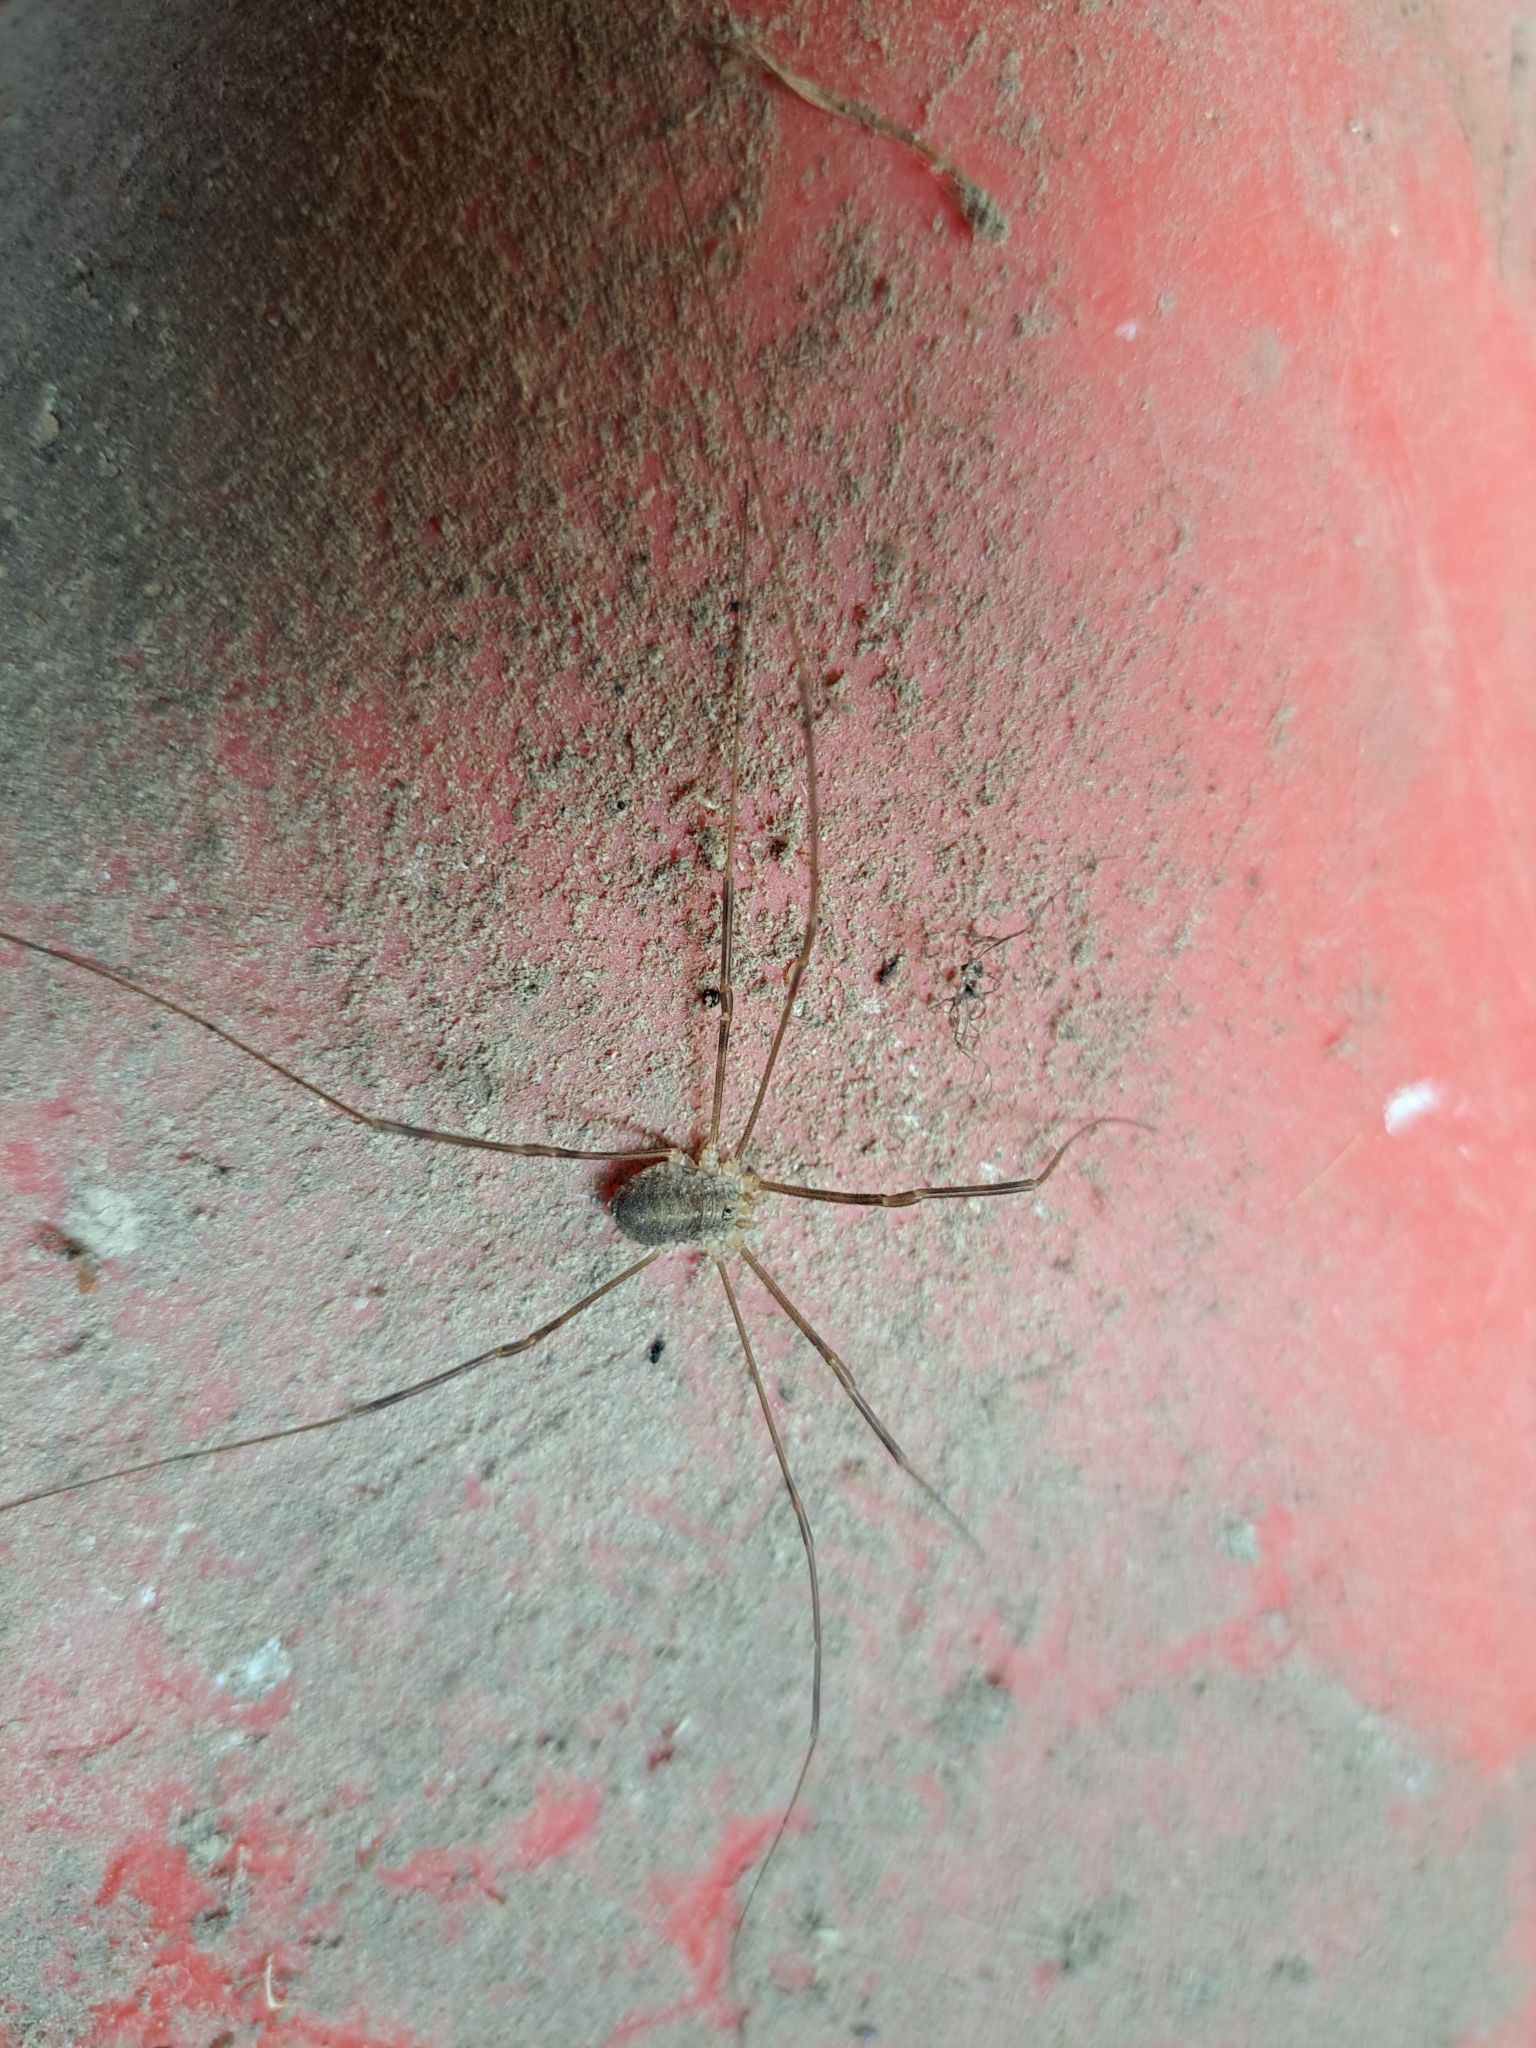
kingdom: Animalia
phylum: Arthropoda
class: Arachnida
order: Opiliones
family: Phalangiidae
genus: Opilio
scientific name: Opilio parietinus
